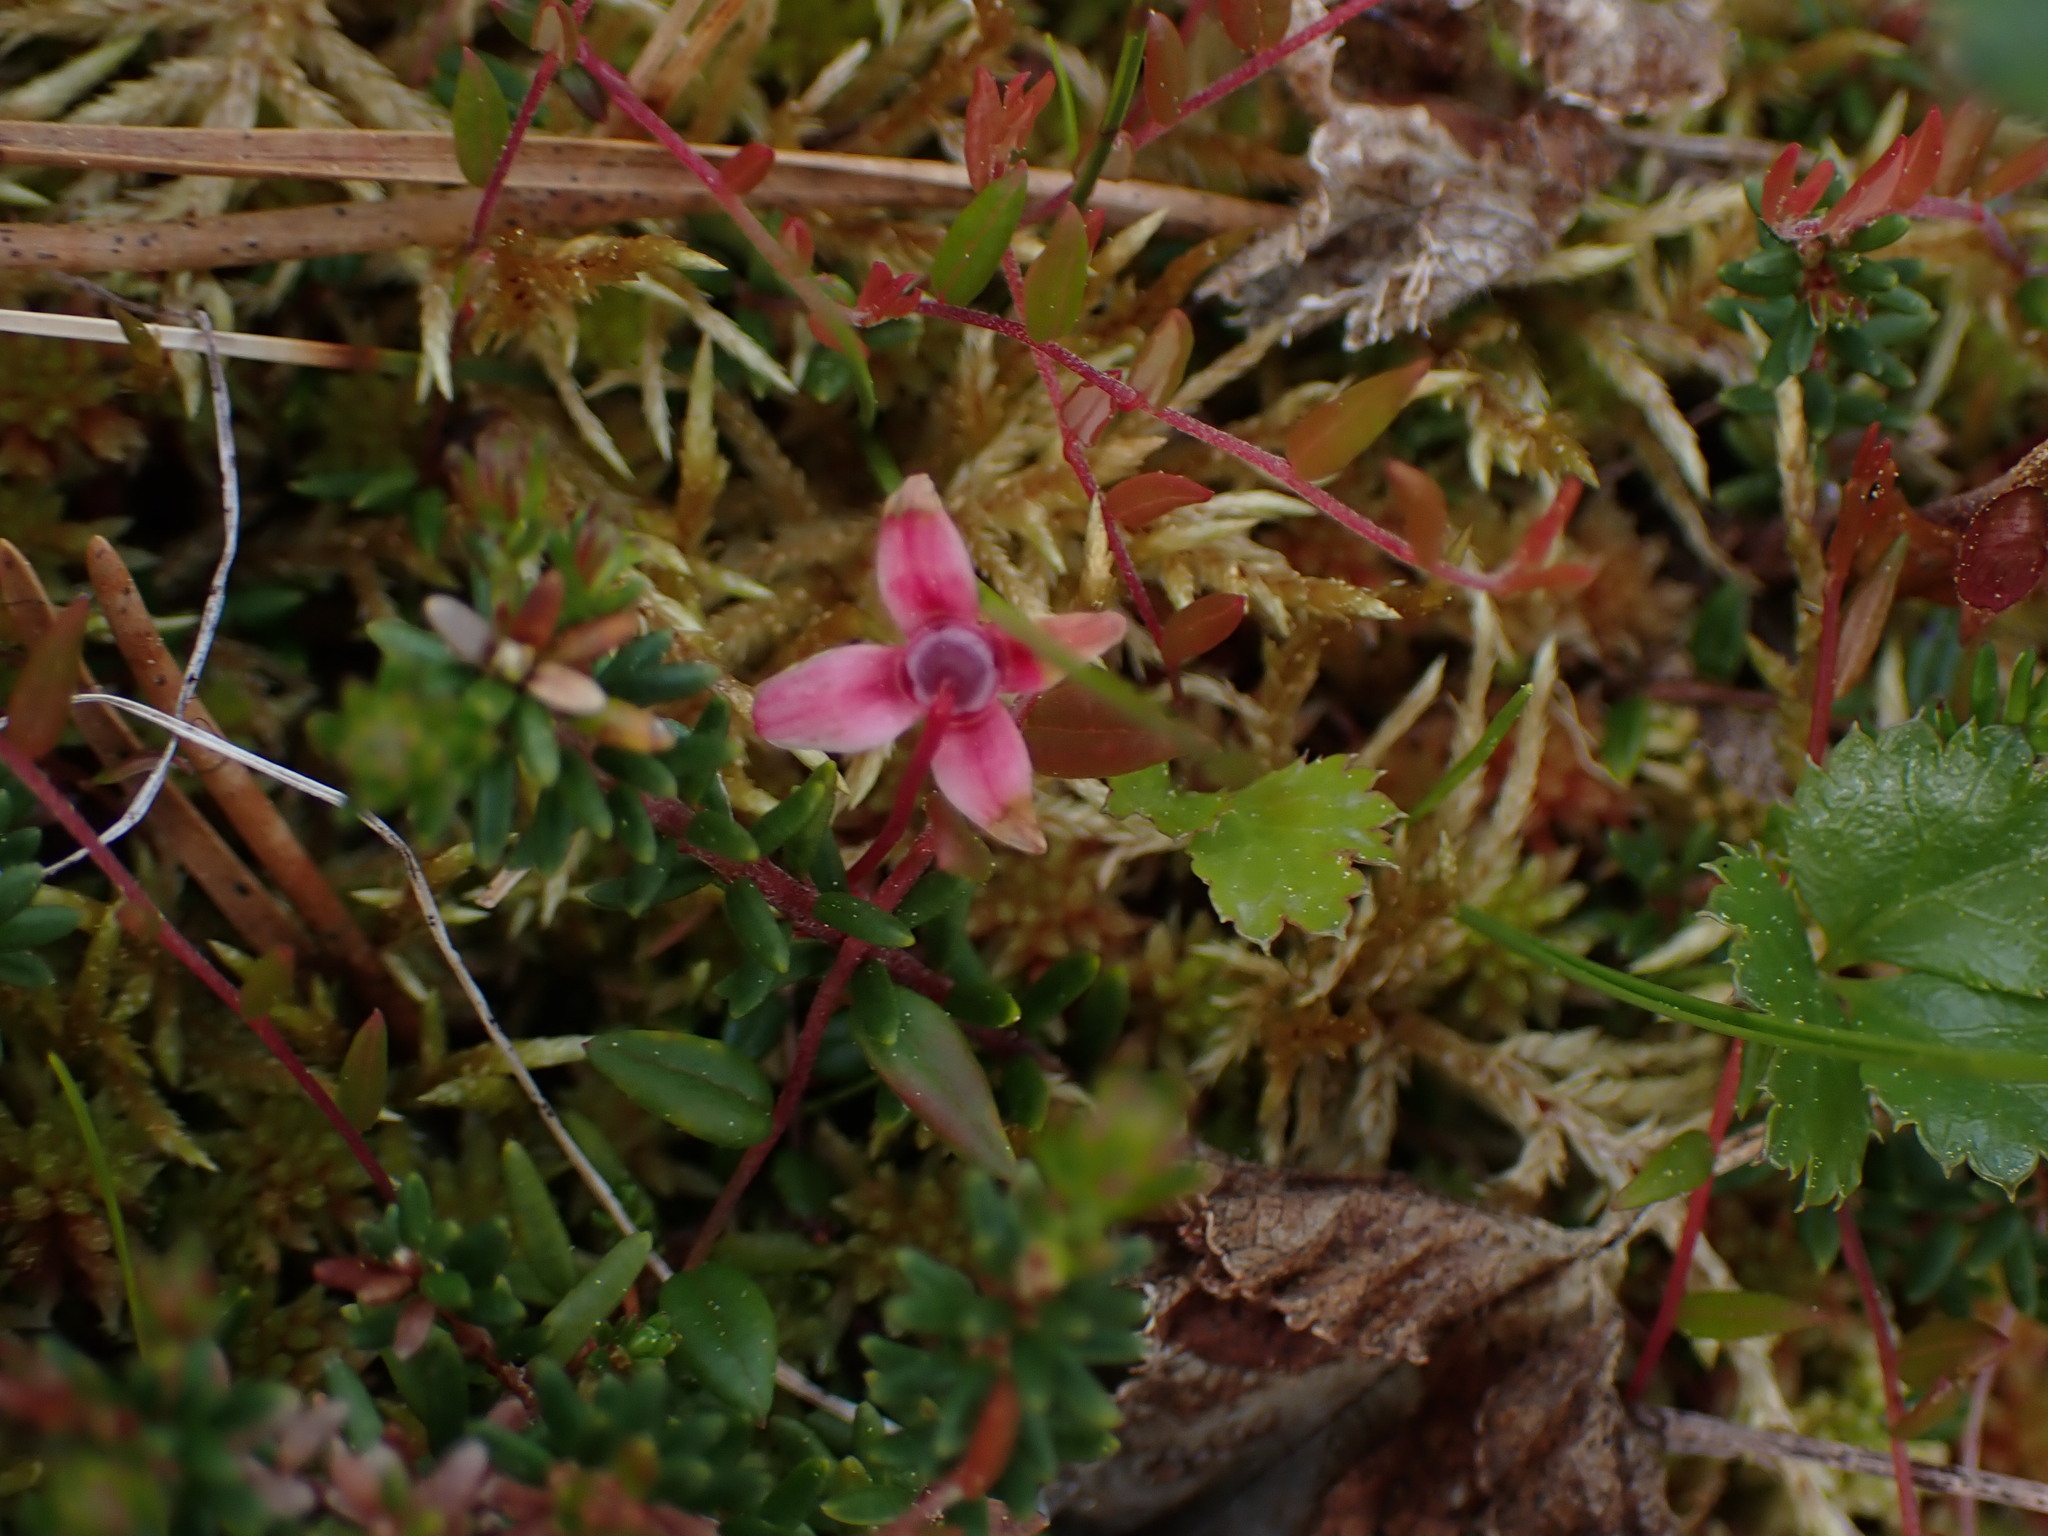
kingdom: Plantae
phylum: Tracheophyta
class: Magnoliopsida
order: Ericales
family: Ericaceae
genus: Vaccinium
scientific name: Vaccinium oxycoccos
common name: Cranberry
